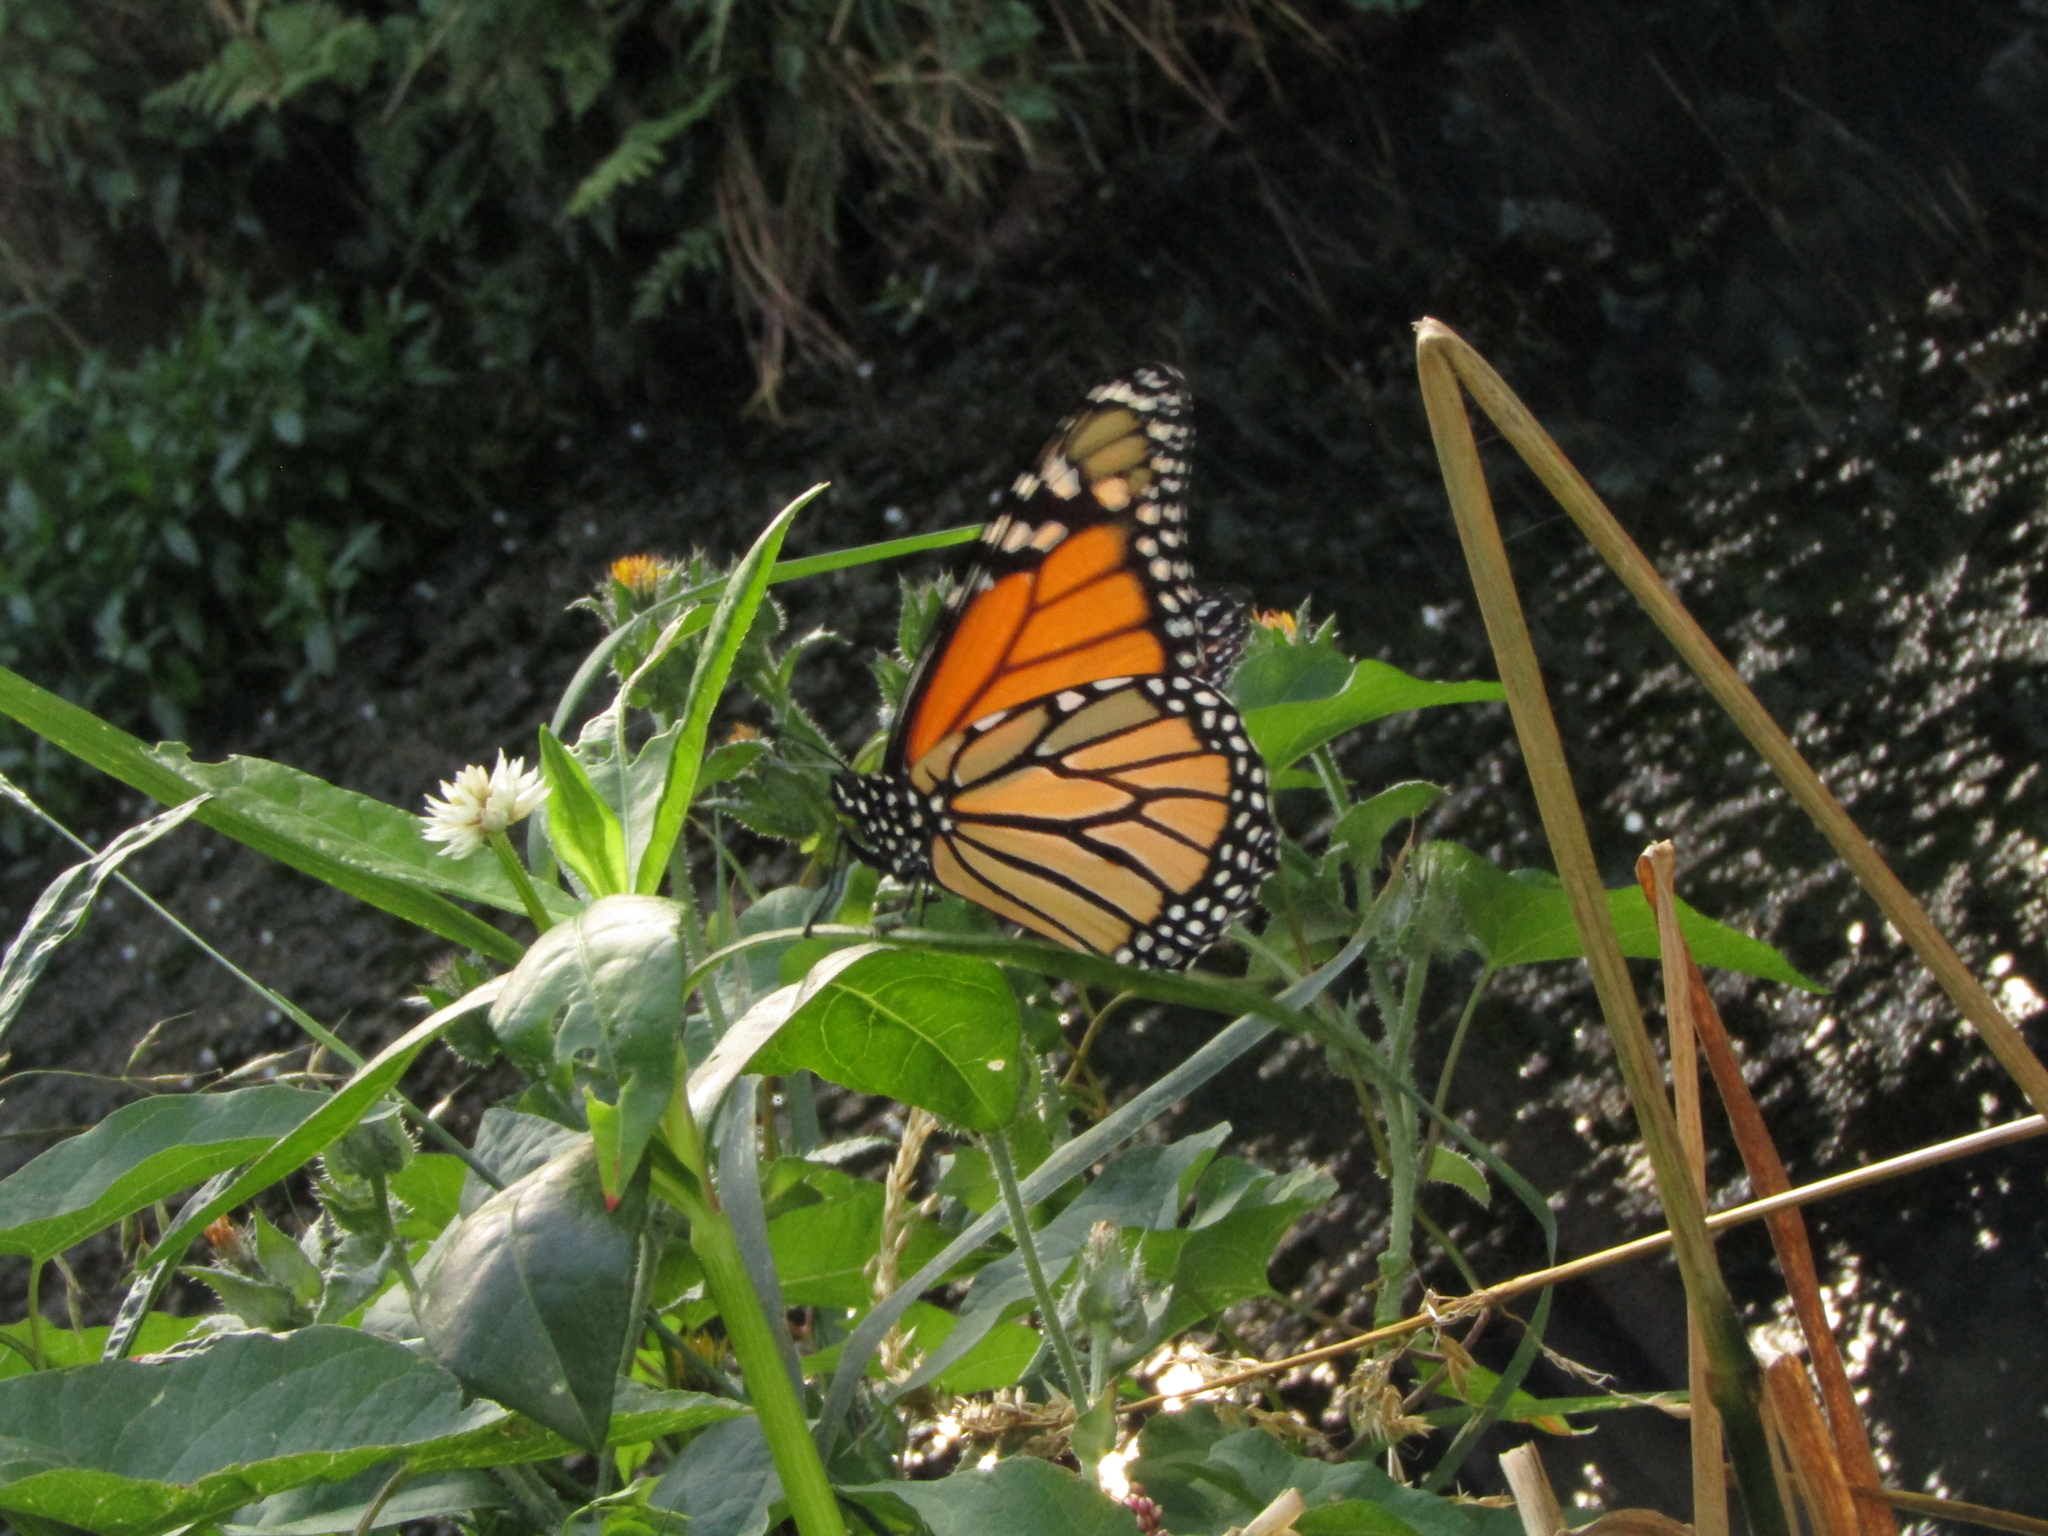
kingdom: Animalia
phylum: Arthropoda
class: Insecta
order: Lepidoptera
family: Nymphalidae
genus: Danaus
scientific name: Danaus plexippus
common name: Monarch
